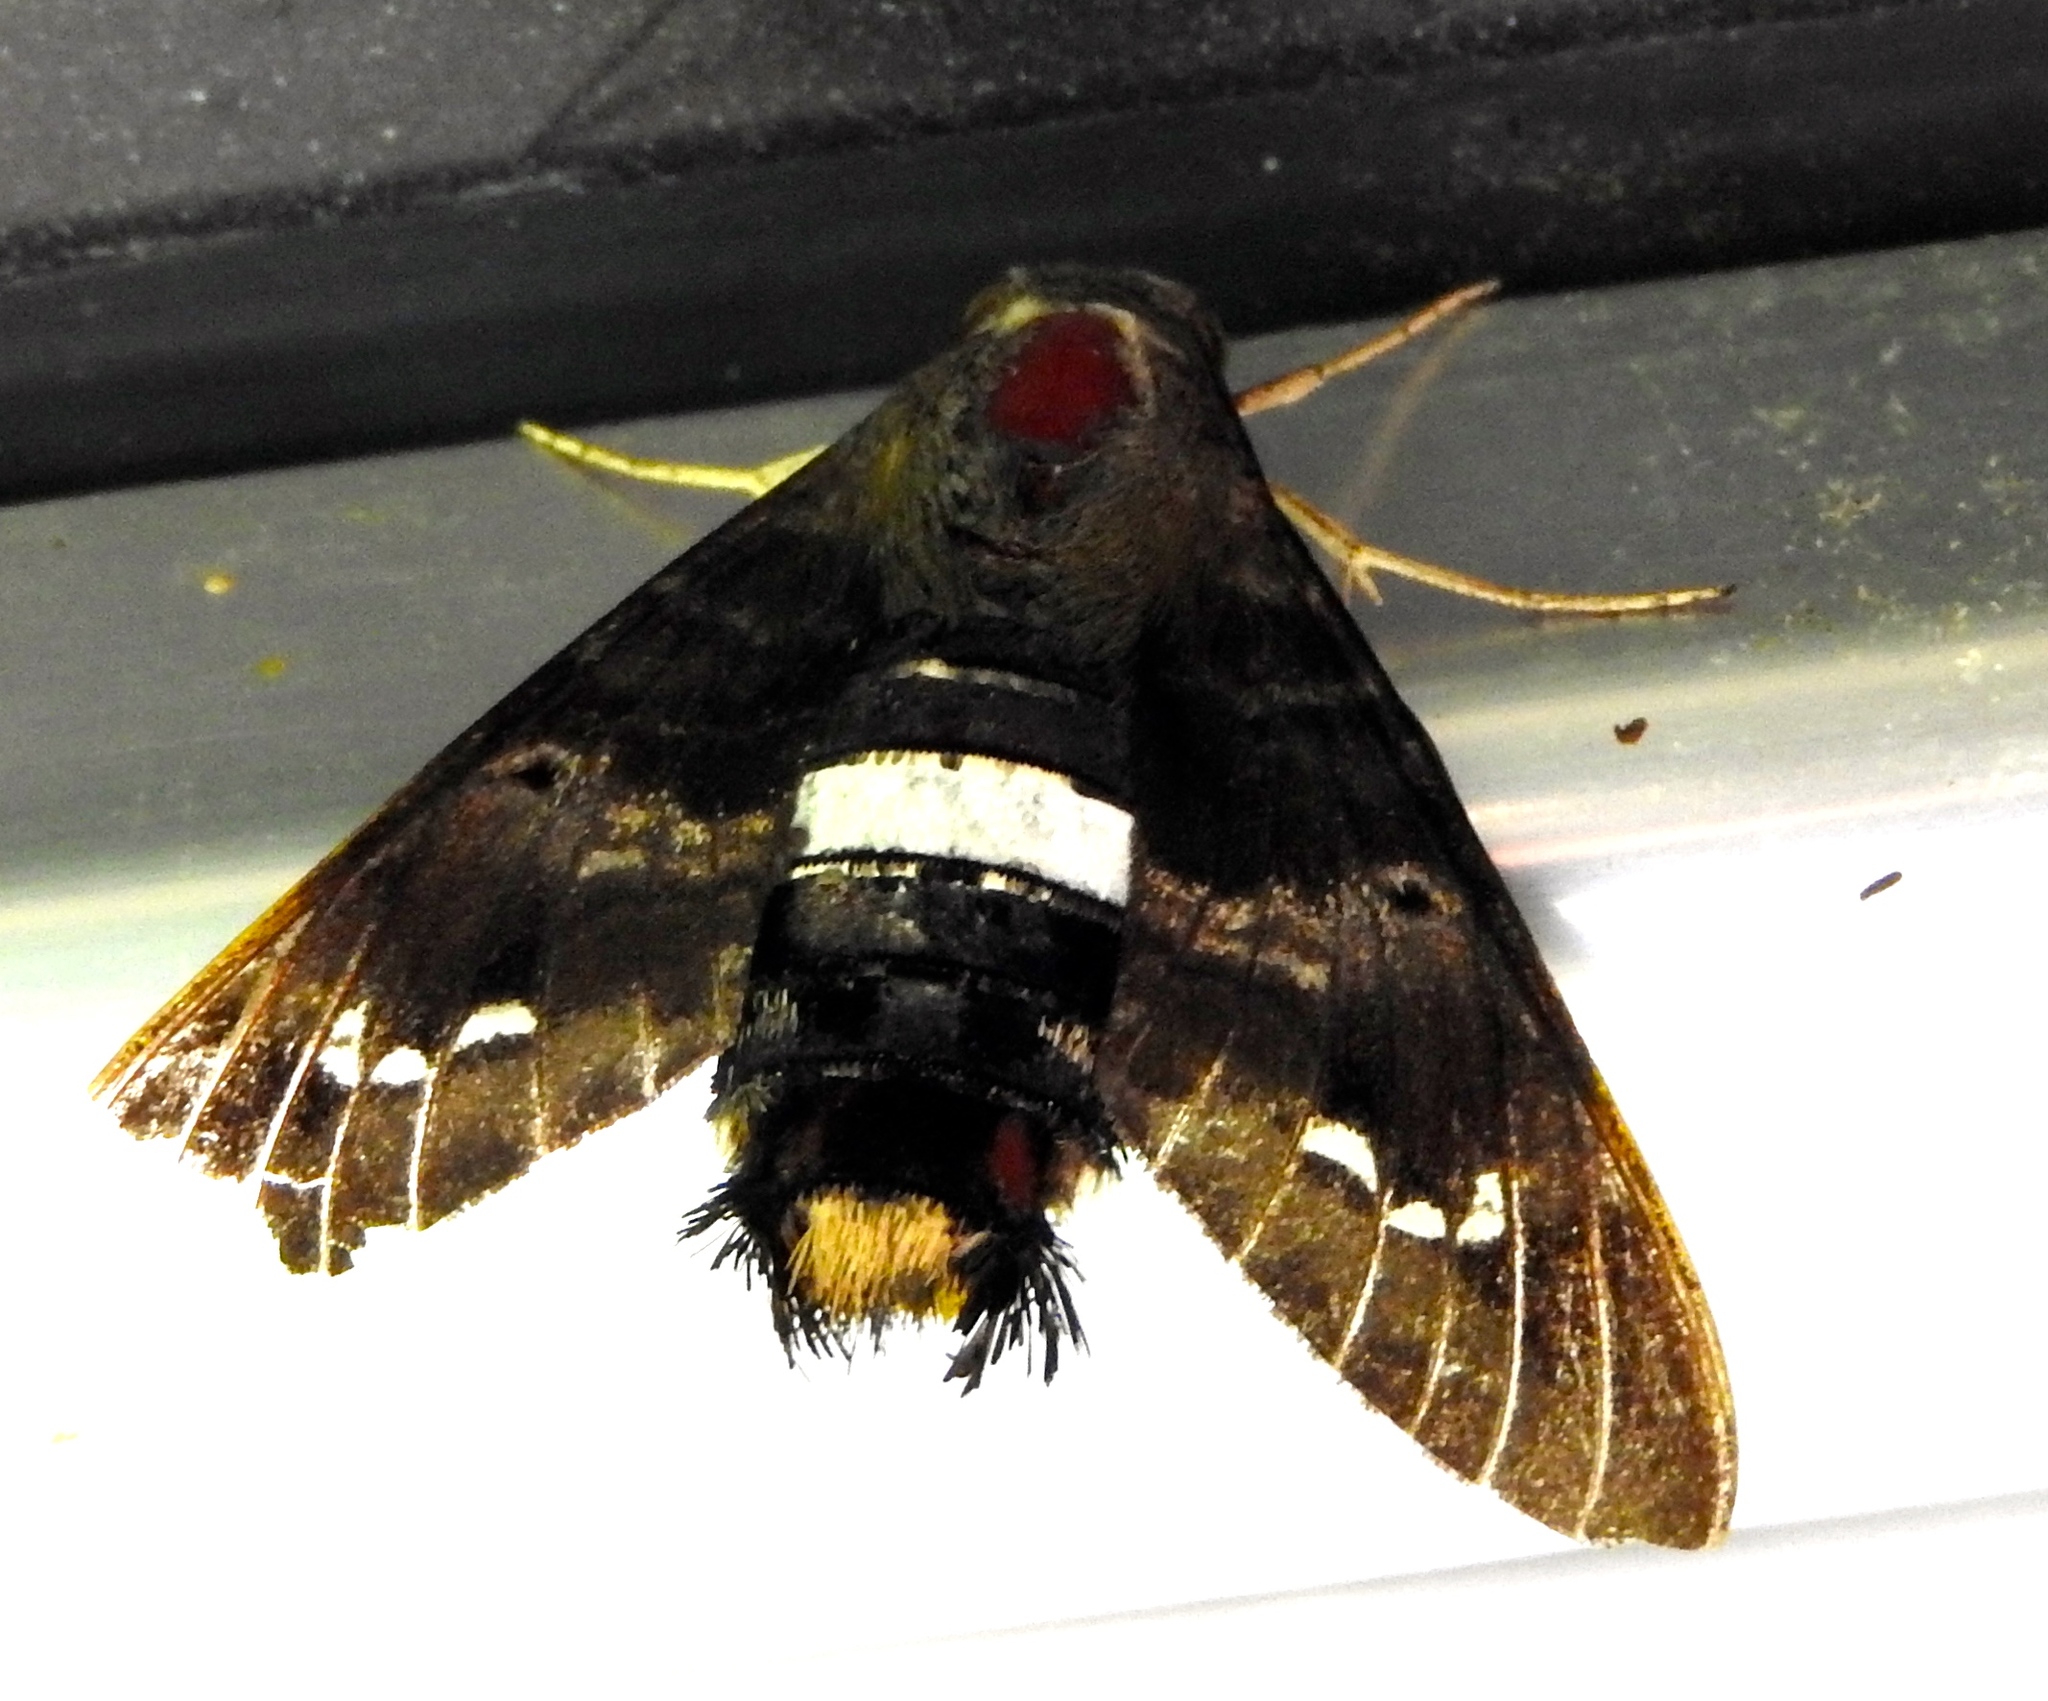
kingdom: Animalia
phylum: Arthropoda
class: Insecta
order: Lepidoptera
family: Sphingidae
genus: Aellopos
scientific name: Aellopos clavipes
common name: Clavipes sphinx
